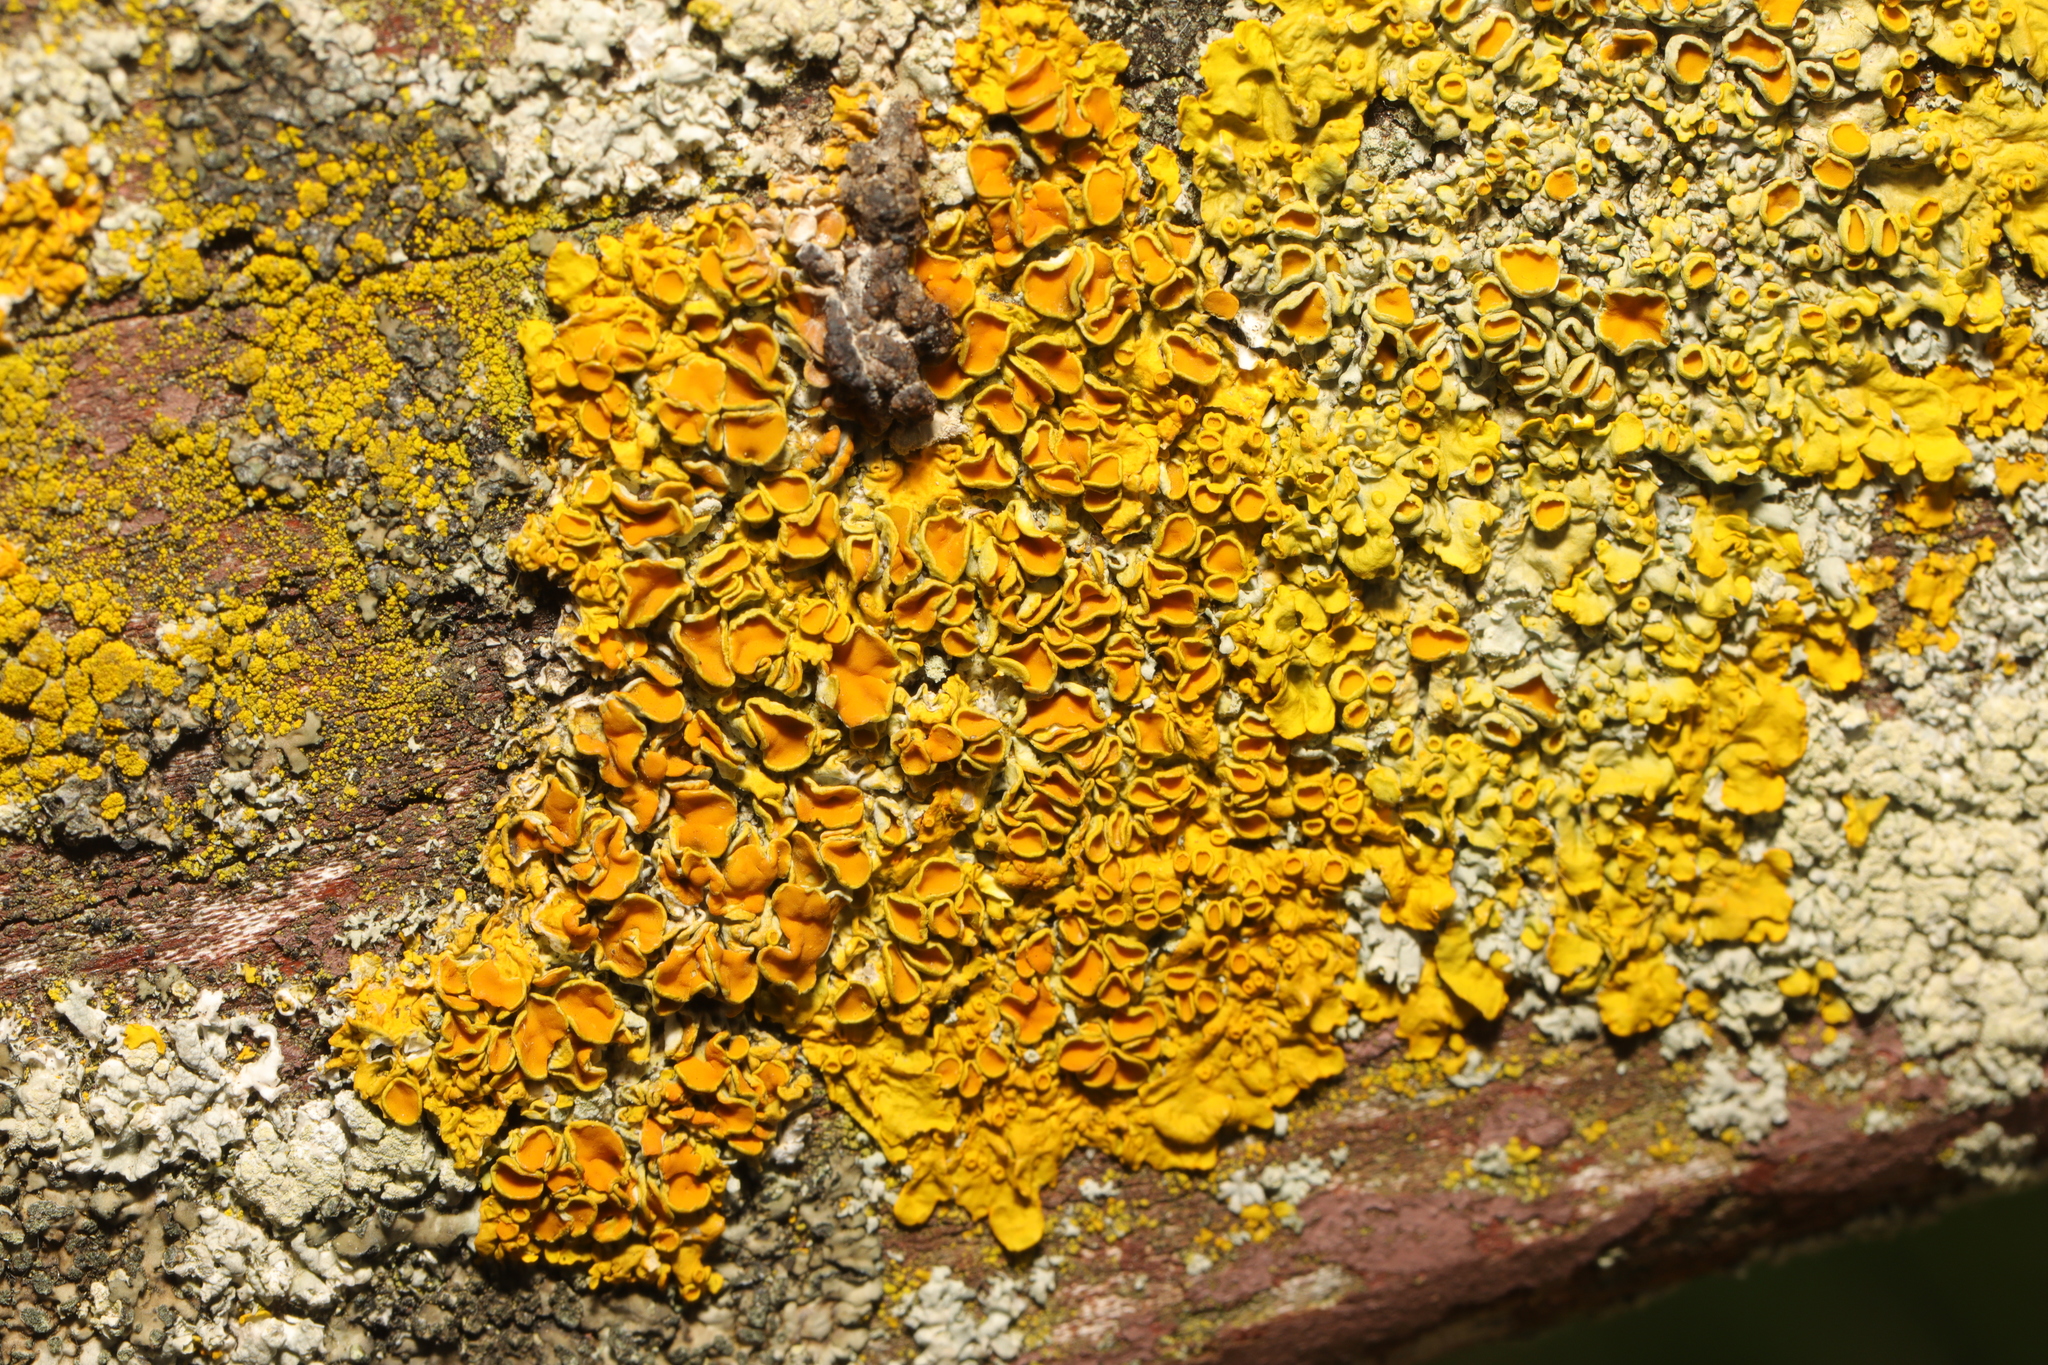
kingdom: Fungi
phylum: Ascomycota
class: Lecanoromycetes
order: Teloschistales
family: Teloschistaceae
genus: Xanthoria
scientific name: Xanthoria parietina
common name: Common orange lichen
